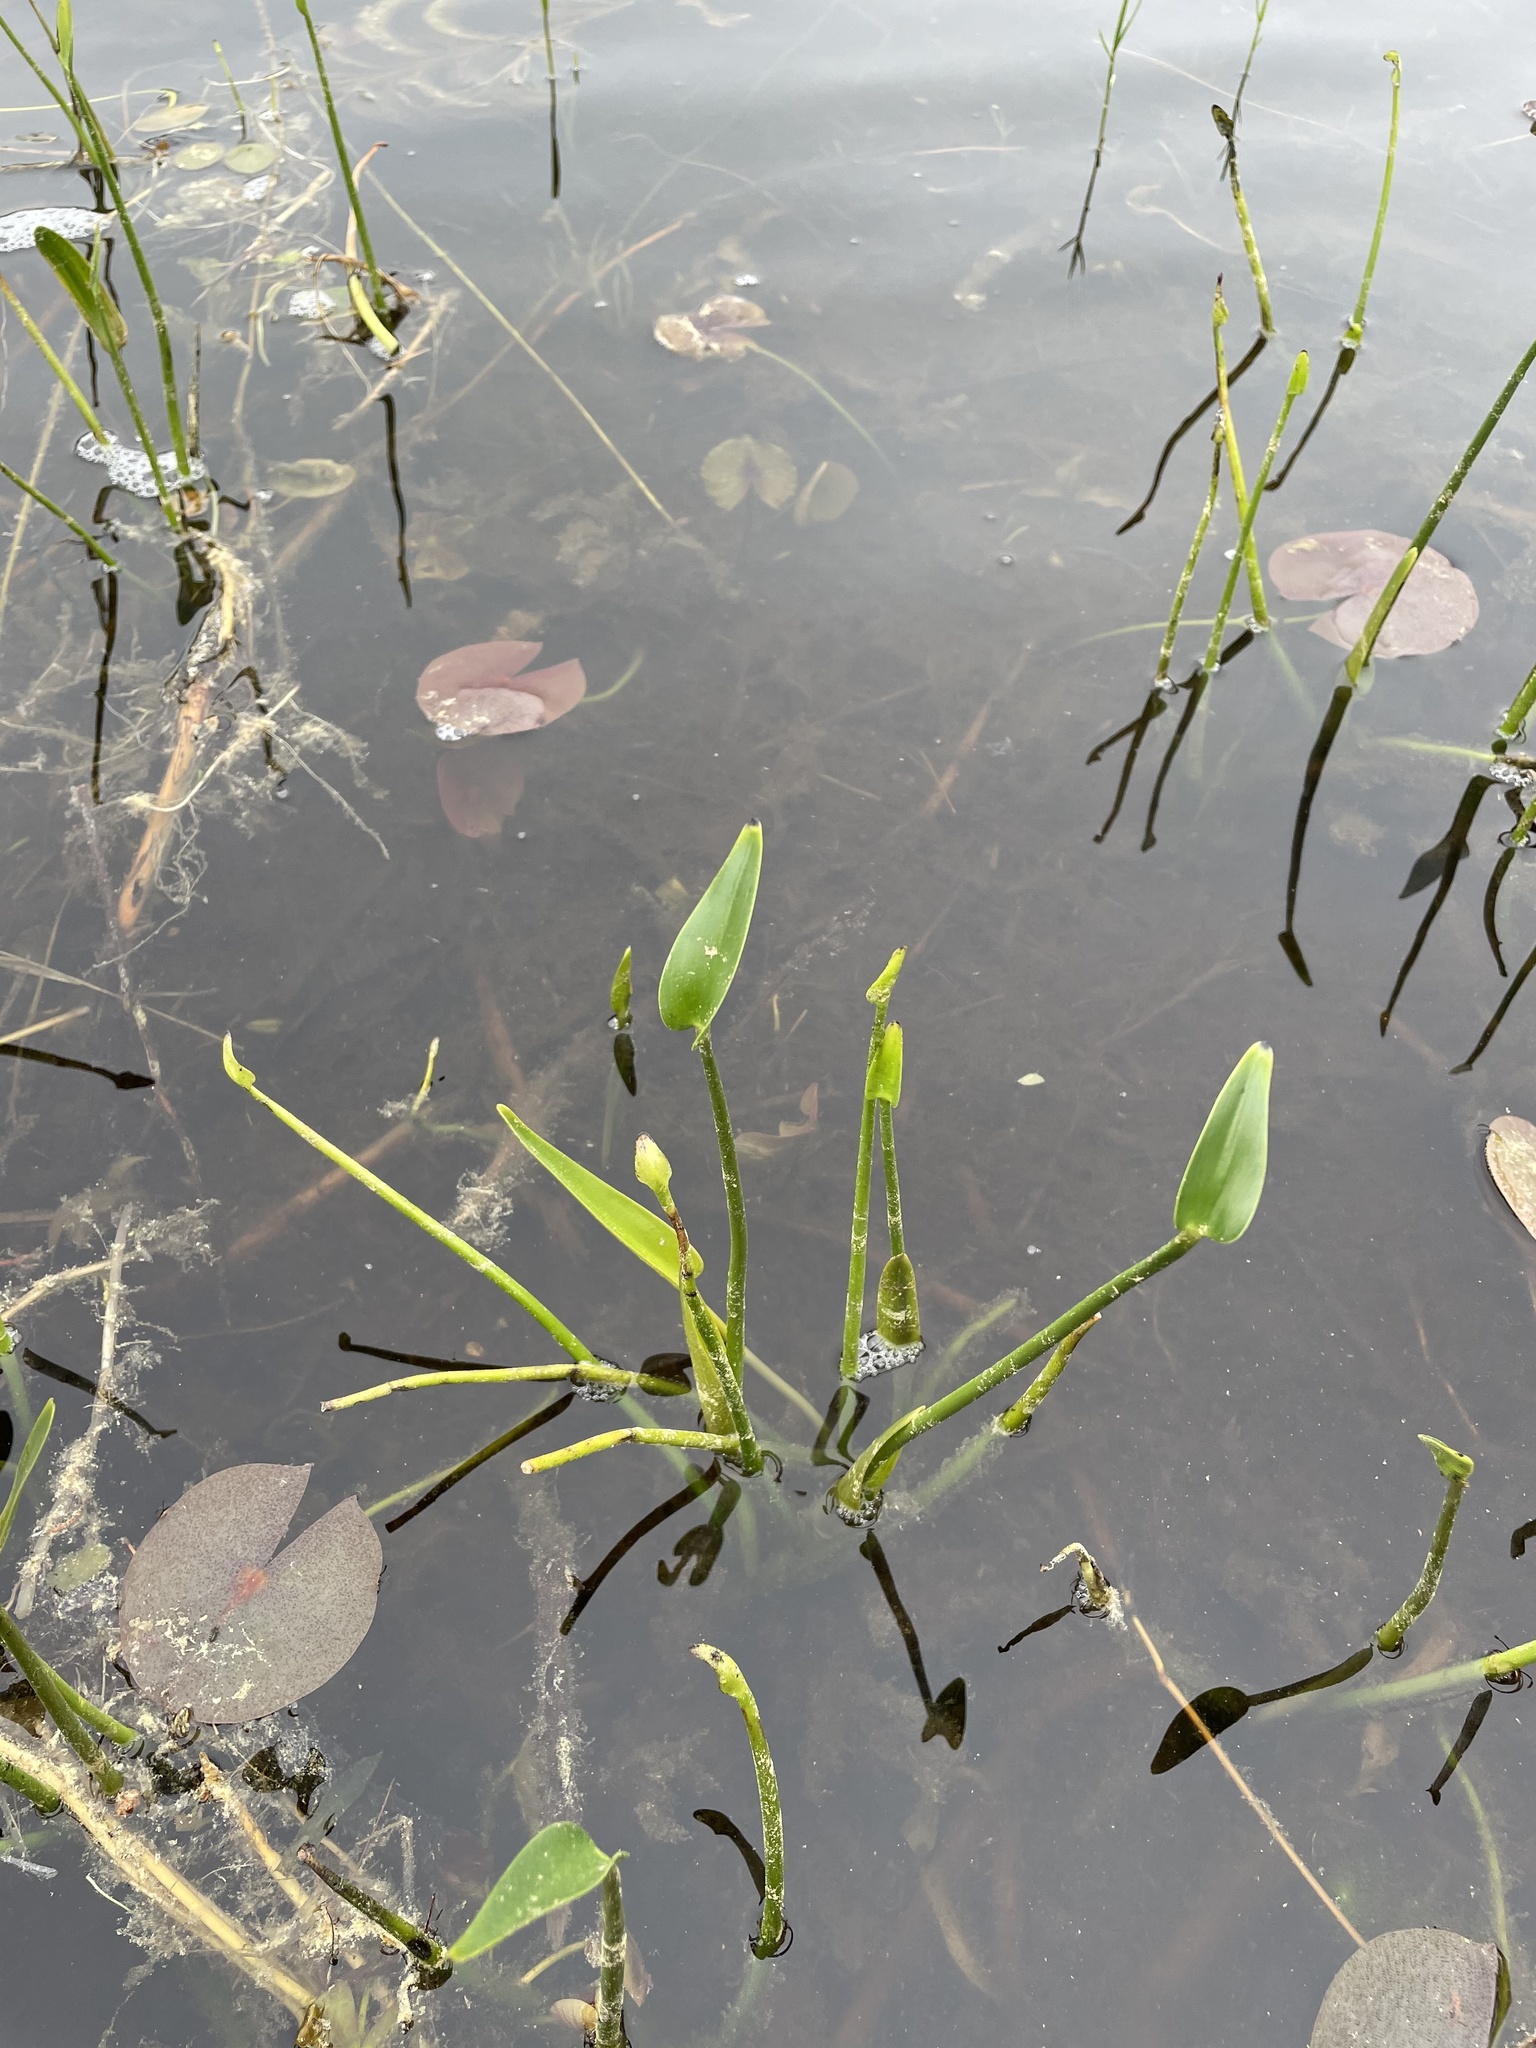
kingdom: Plantae
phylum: Tracheophyta
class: Liliopsida
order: Commelinales
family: Pontederiaceae
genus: Pontederia
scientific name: Pontederia cordata
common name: Pickerelweed
